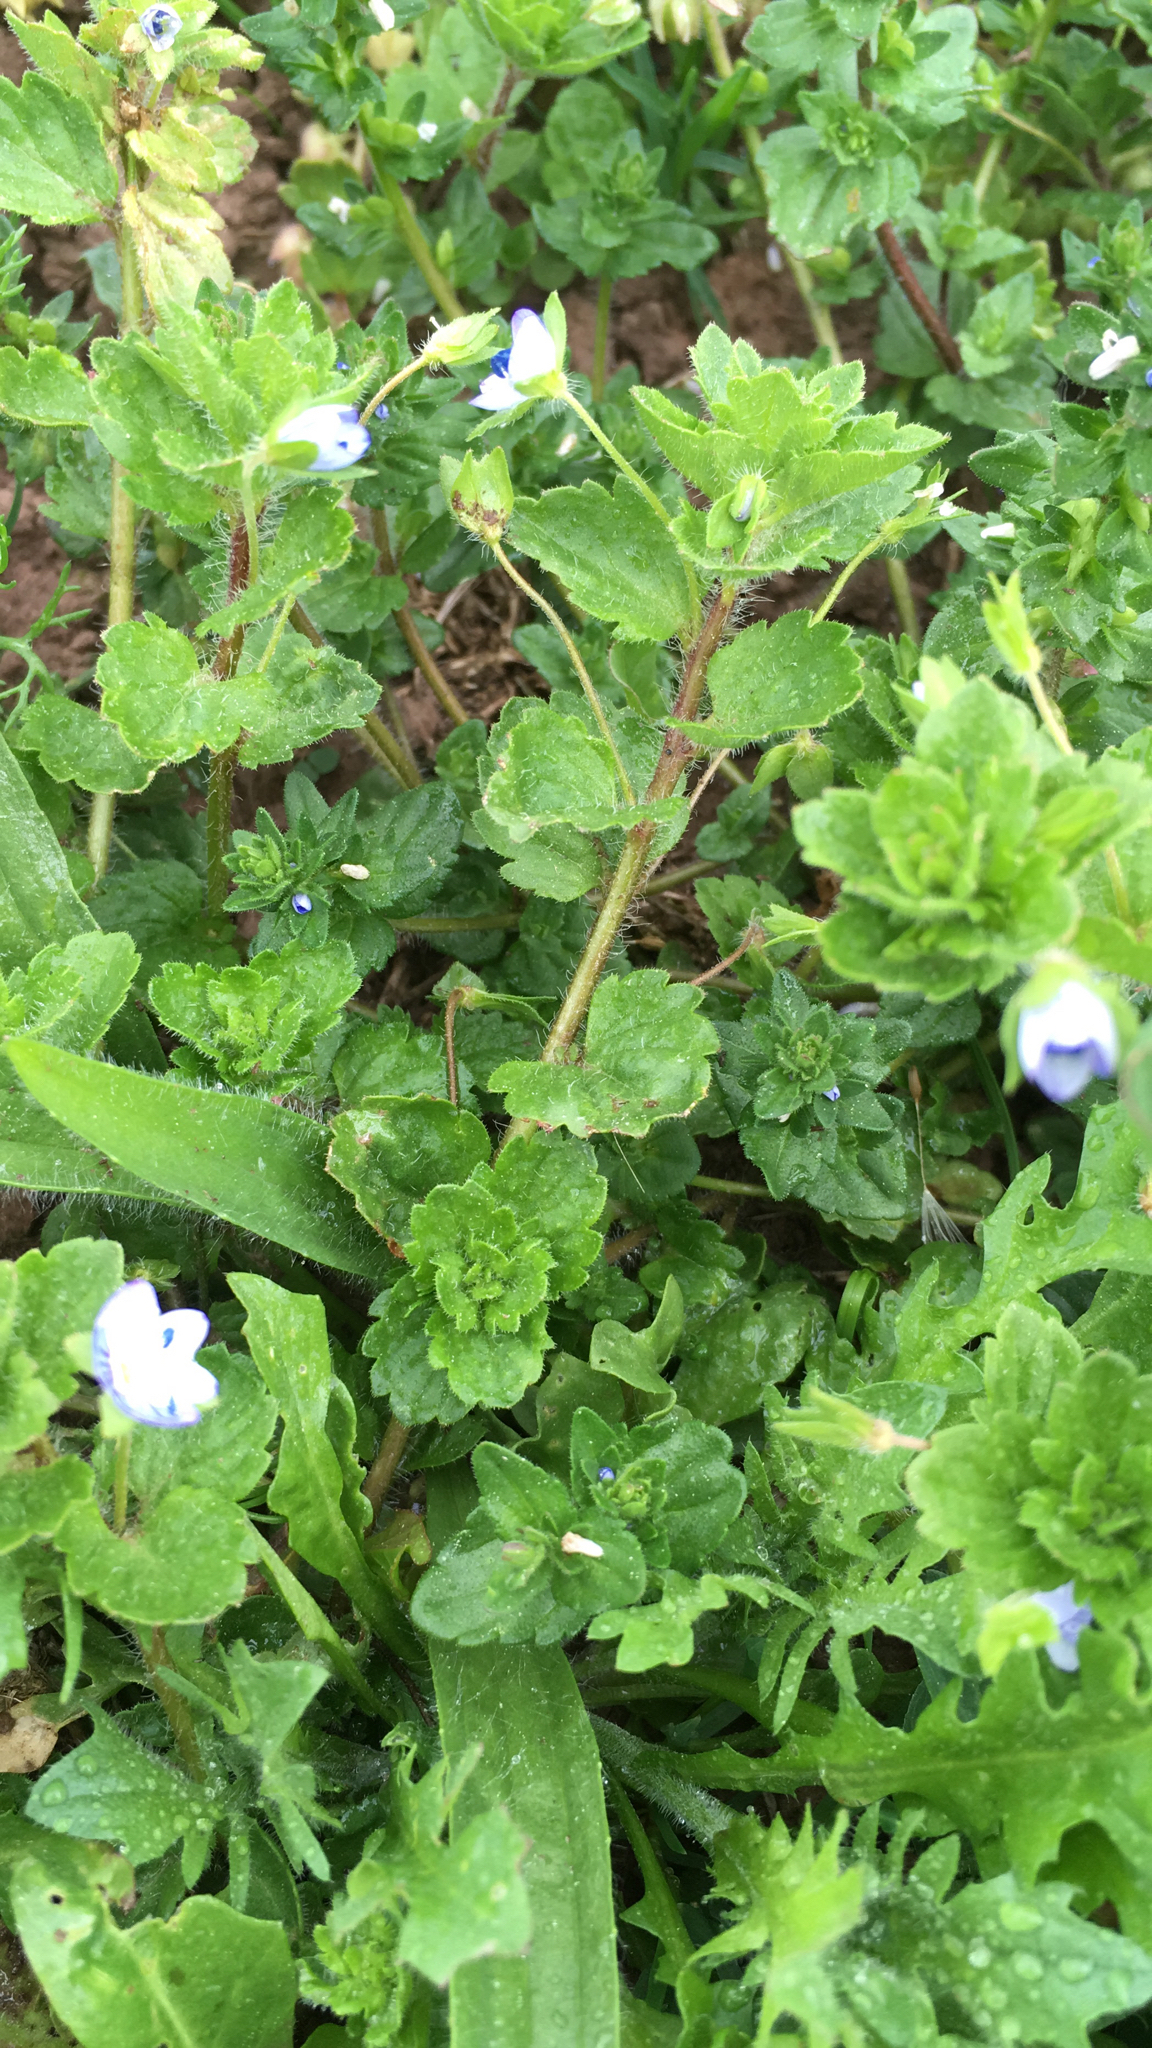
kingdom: Plantae
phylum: Tracheophyta
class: Magnoliopsida
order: Lamiales
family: Plantaginaceae
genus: Veronica
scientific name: Veronica persica
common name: Common field-speedwell
